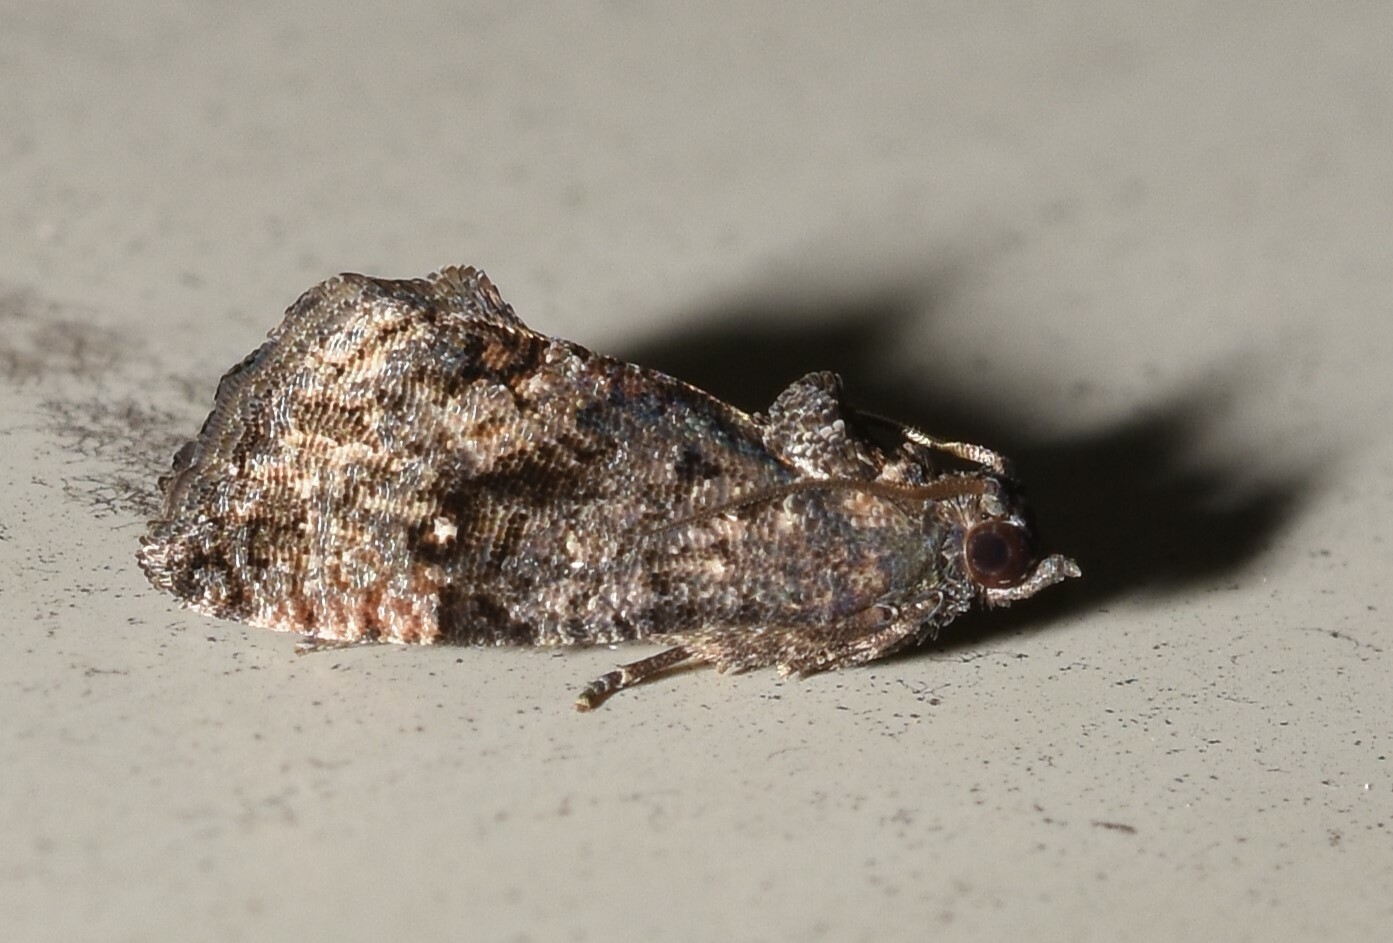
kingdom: Animalia
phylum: Arthropoda
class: Insecta
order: Lepidoptera
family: Tortricidae
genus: Gymnandrosoma
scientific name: Gymnandrosoma punctidiscanum
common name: Dotted ecdytolopha moth
